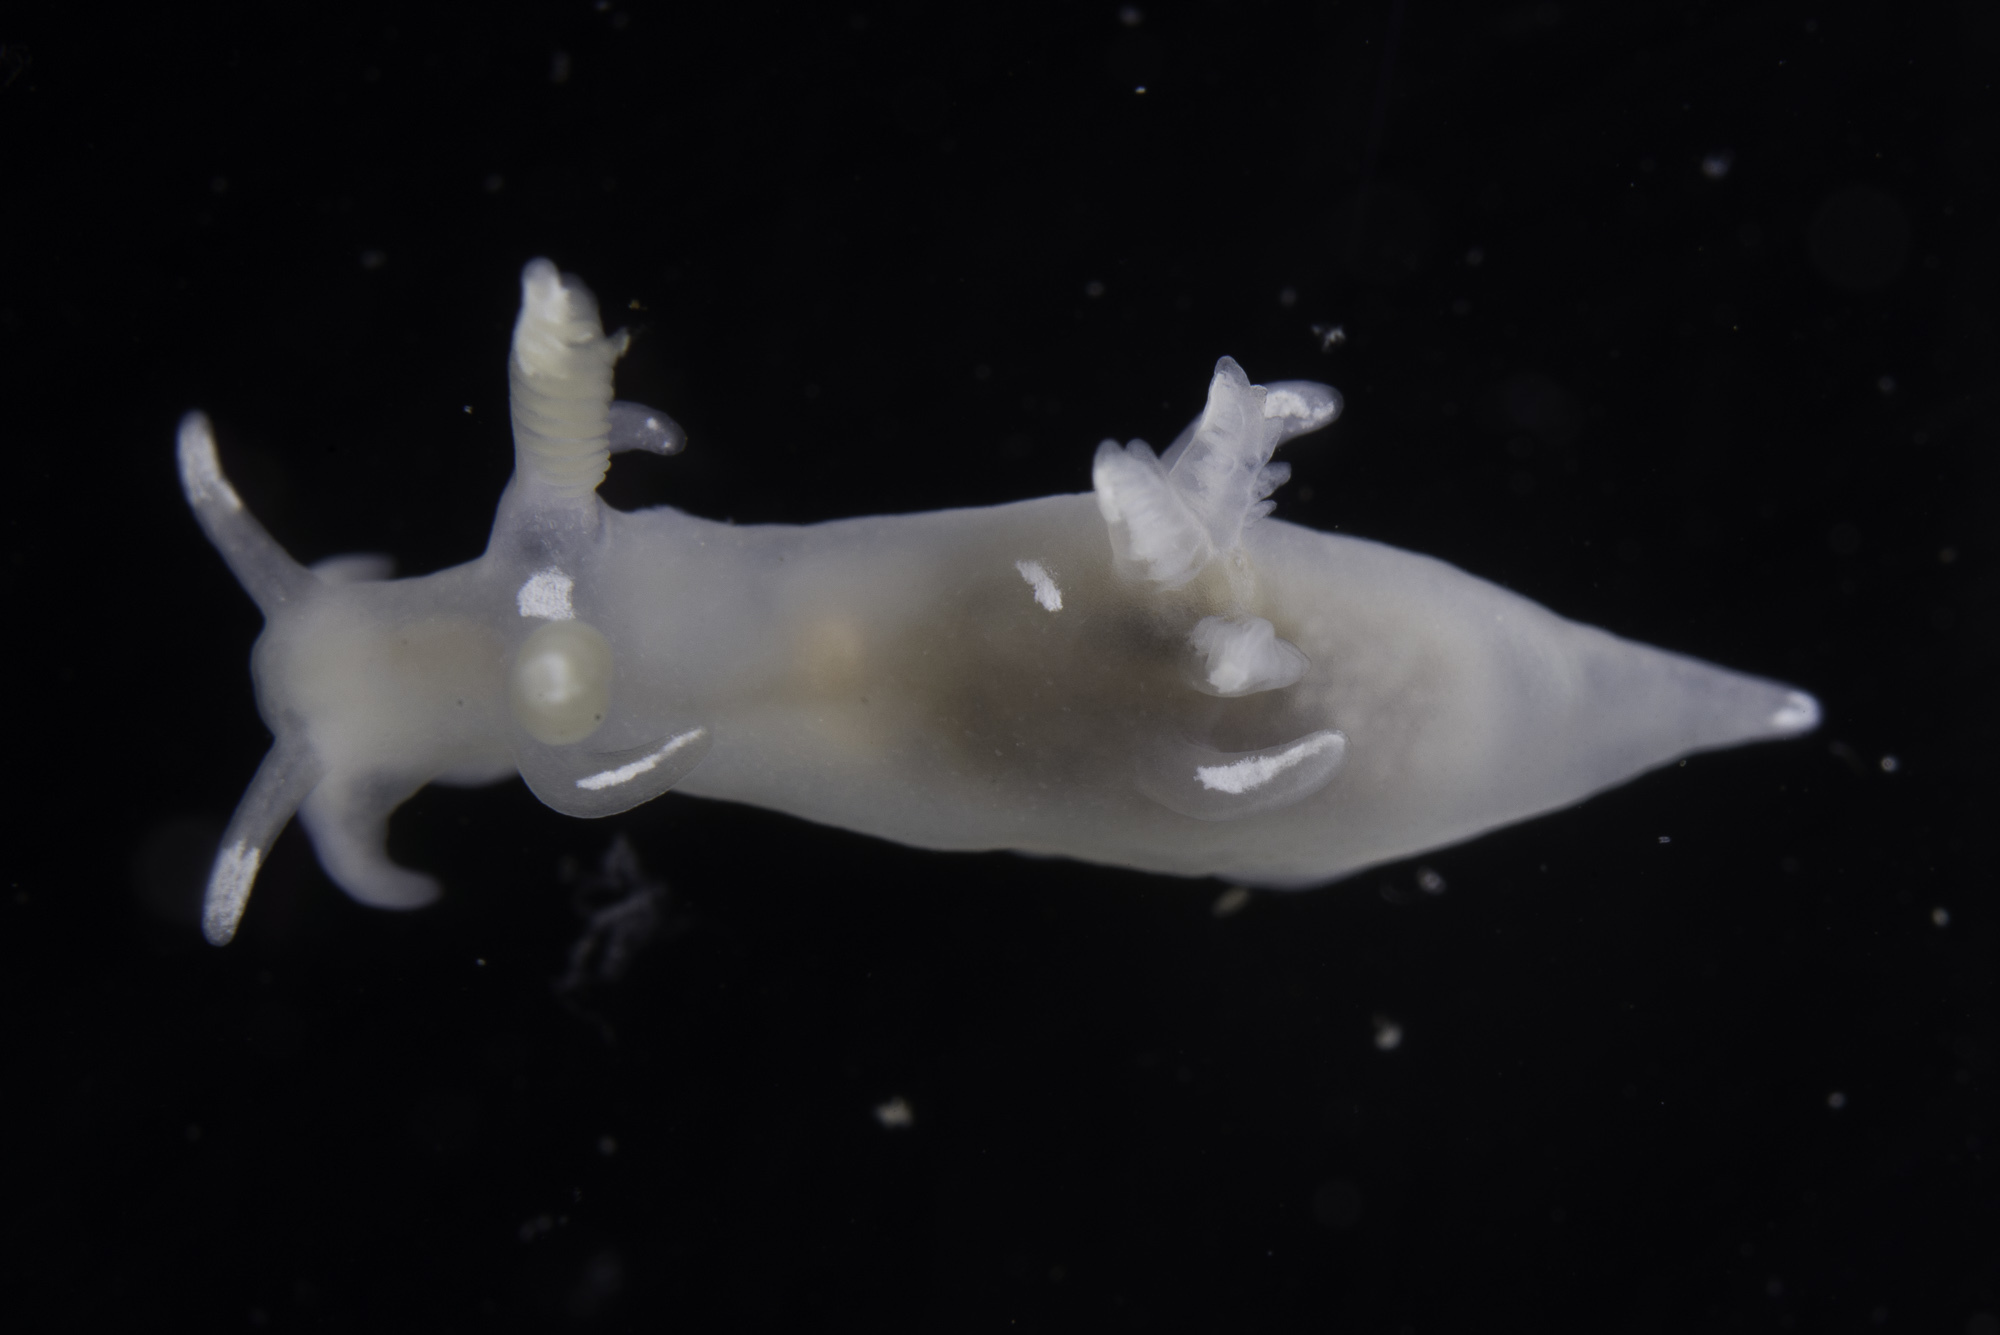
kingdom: Animalia
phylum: Mollusca
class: Gastropoda
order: Nudibranchia
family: Goniodorididae
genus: Trapania
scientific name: Trapania lineata
